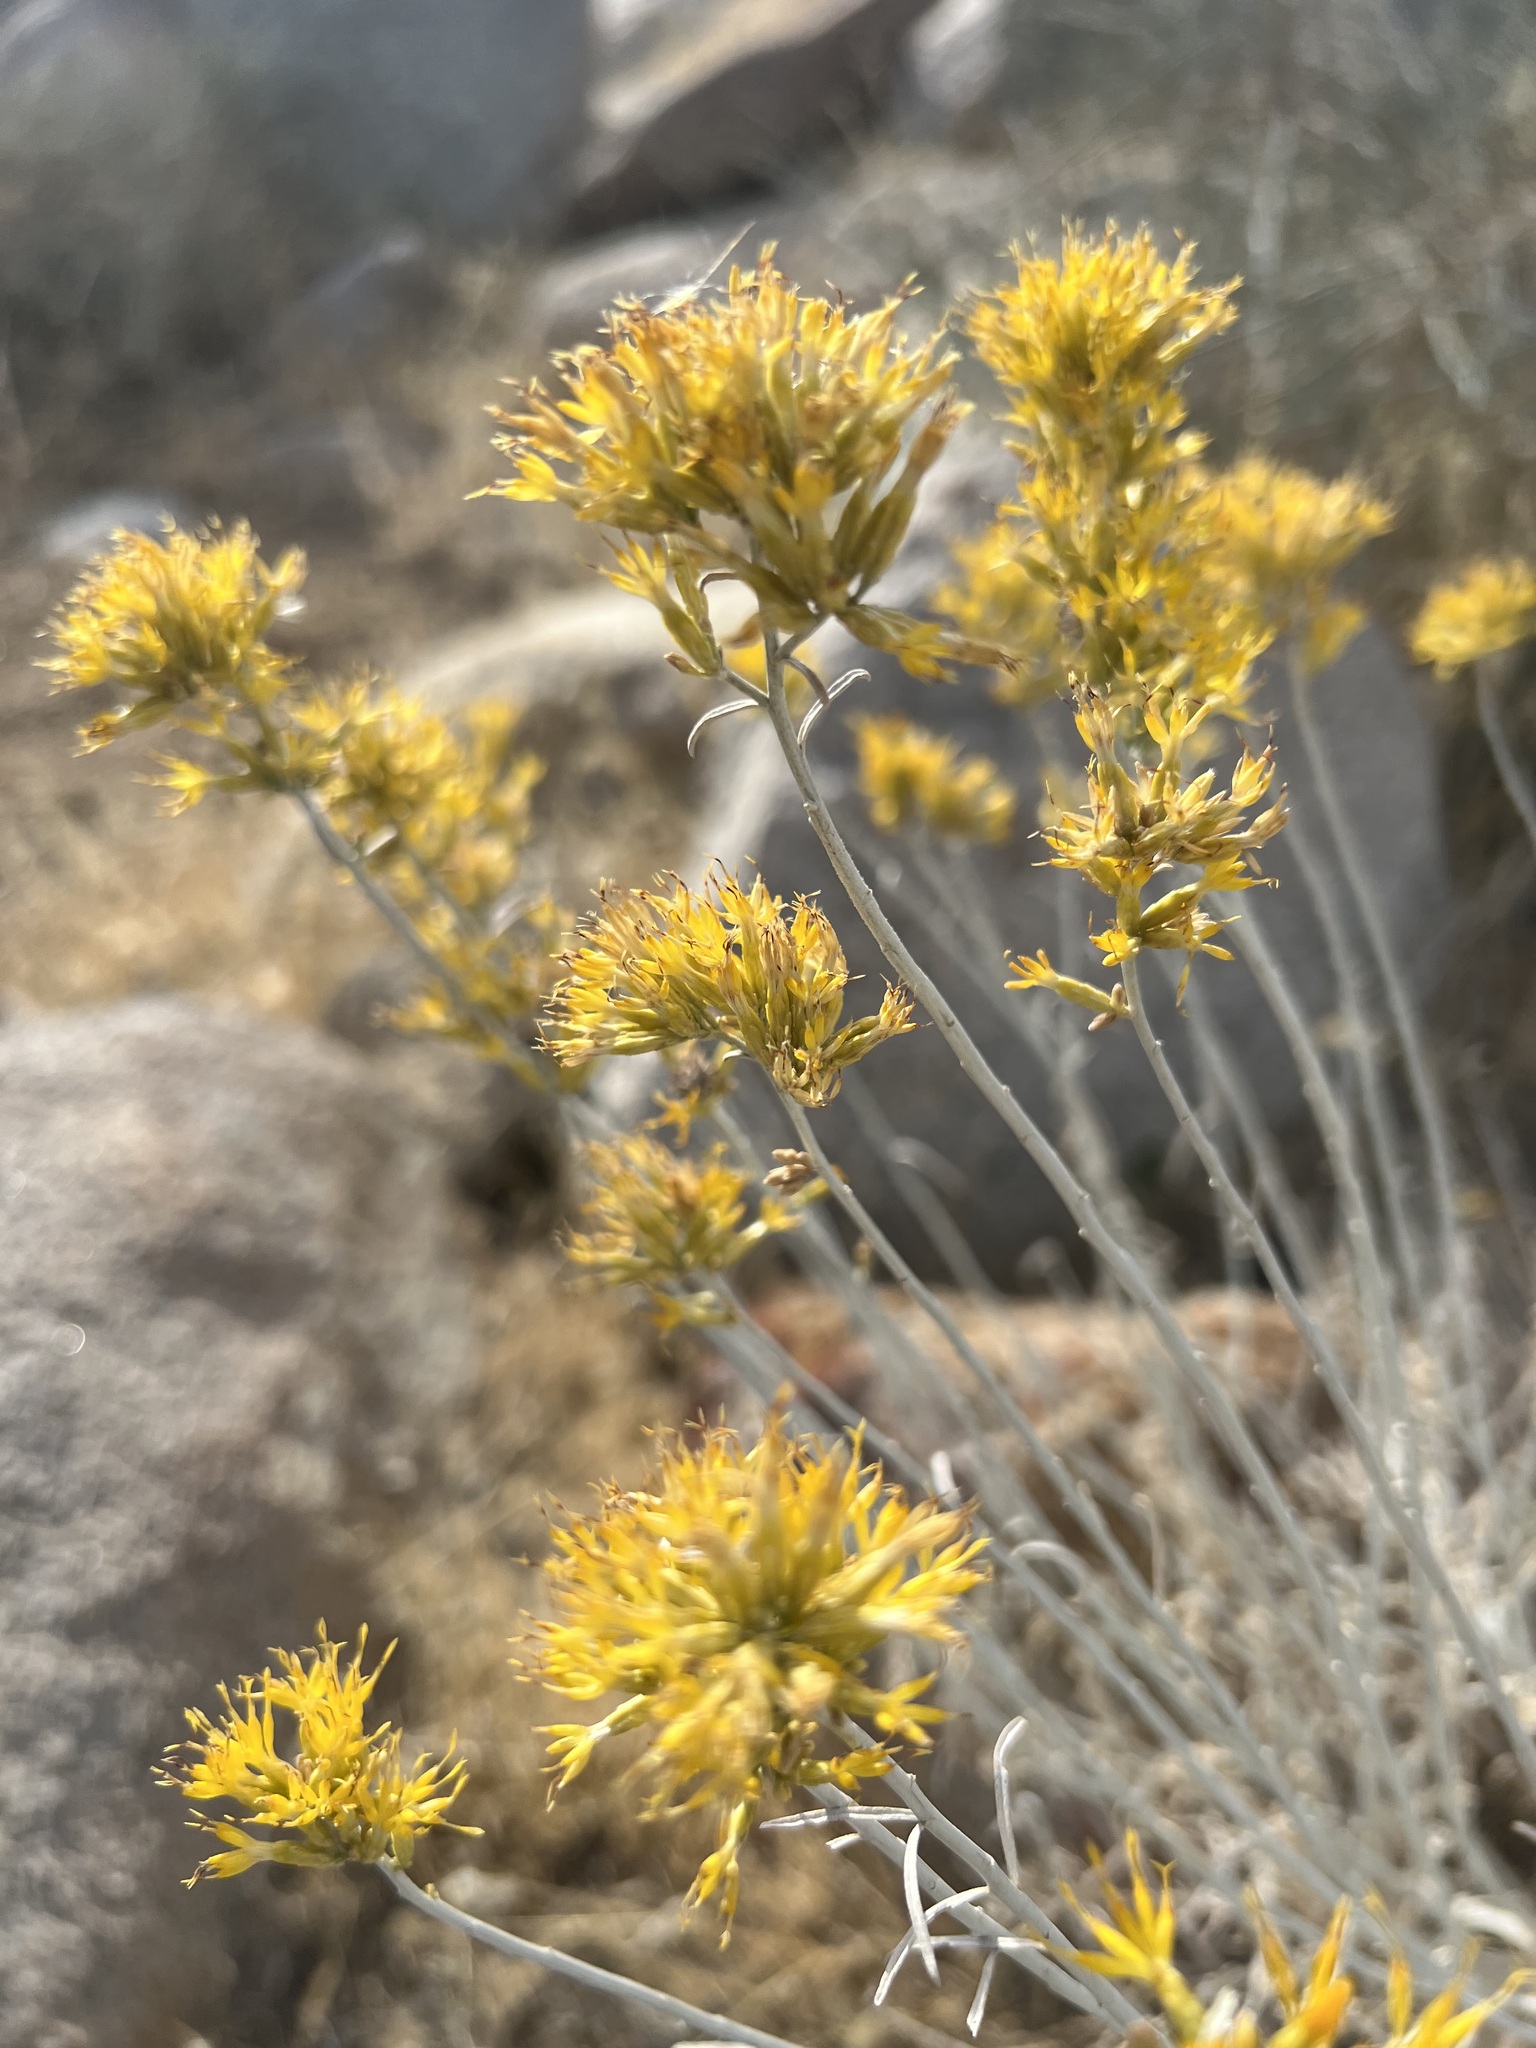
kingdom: Plantae
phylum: Tracheophyta
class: Magnoliopsida
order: Asterales
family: Asteraceae
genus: Ericameria
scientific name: Ericameria nauseosa
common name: Rubber rabbitbrush
